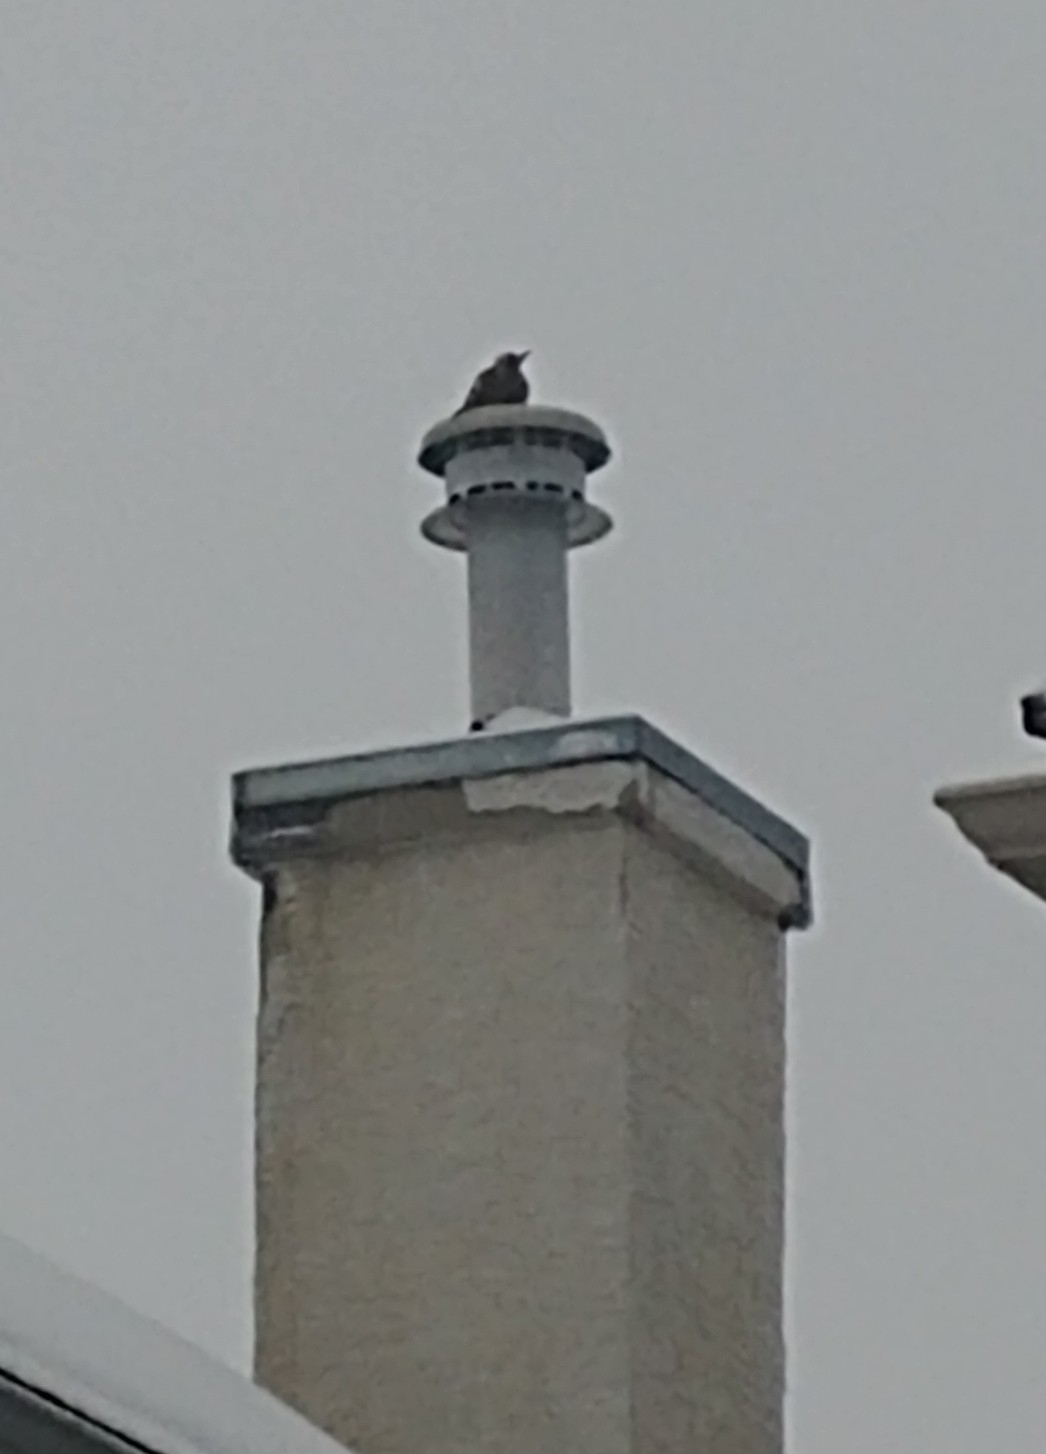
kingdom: Animalia
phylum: Chordata
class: Aves
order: Piciformes
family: Picidae
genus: Colaptes
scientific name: Colaptes auratus
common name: Northern flicker
